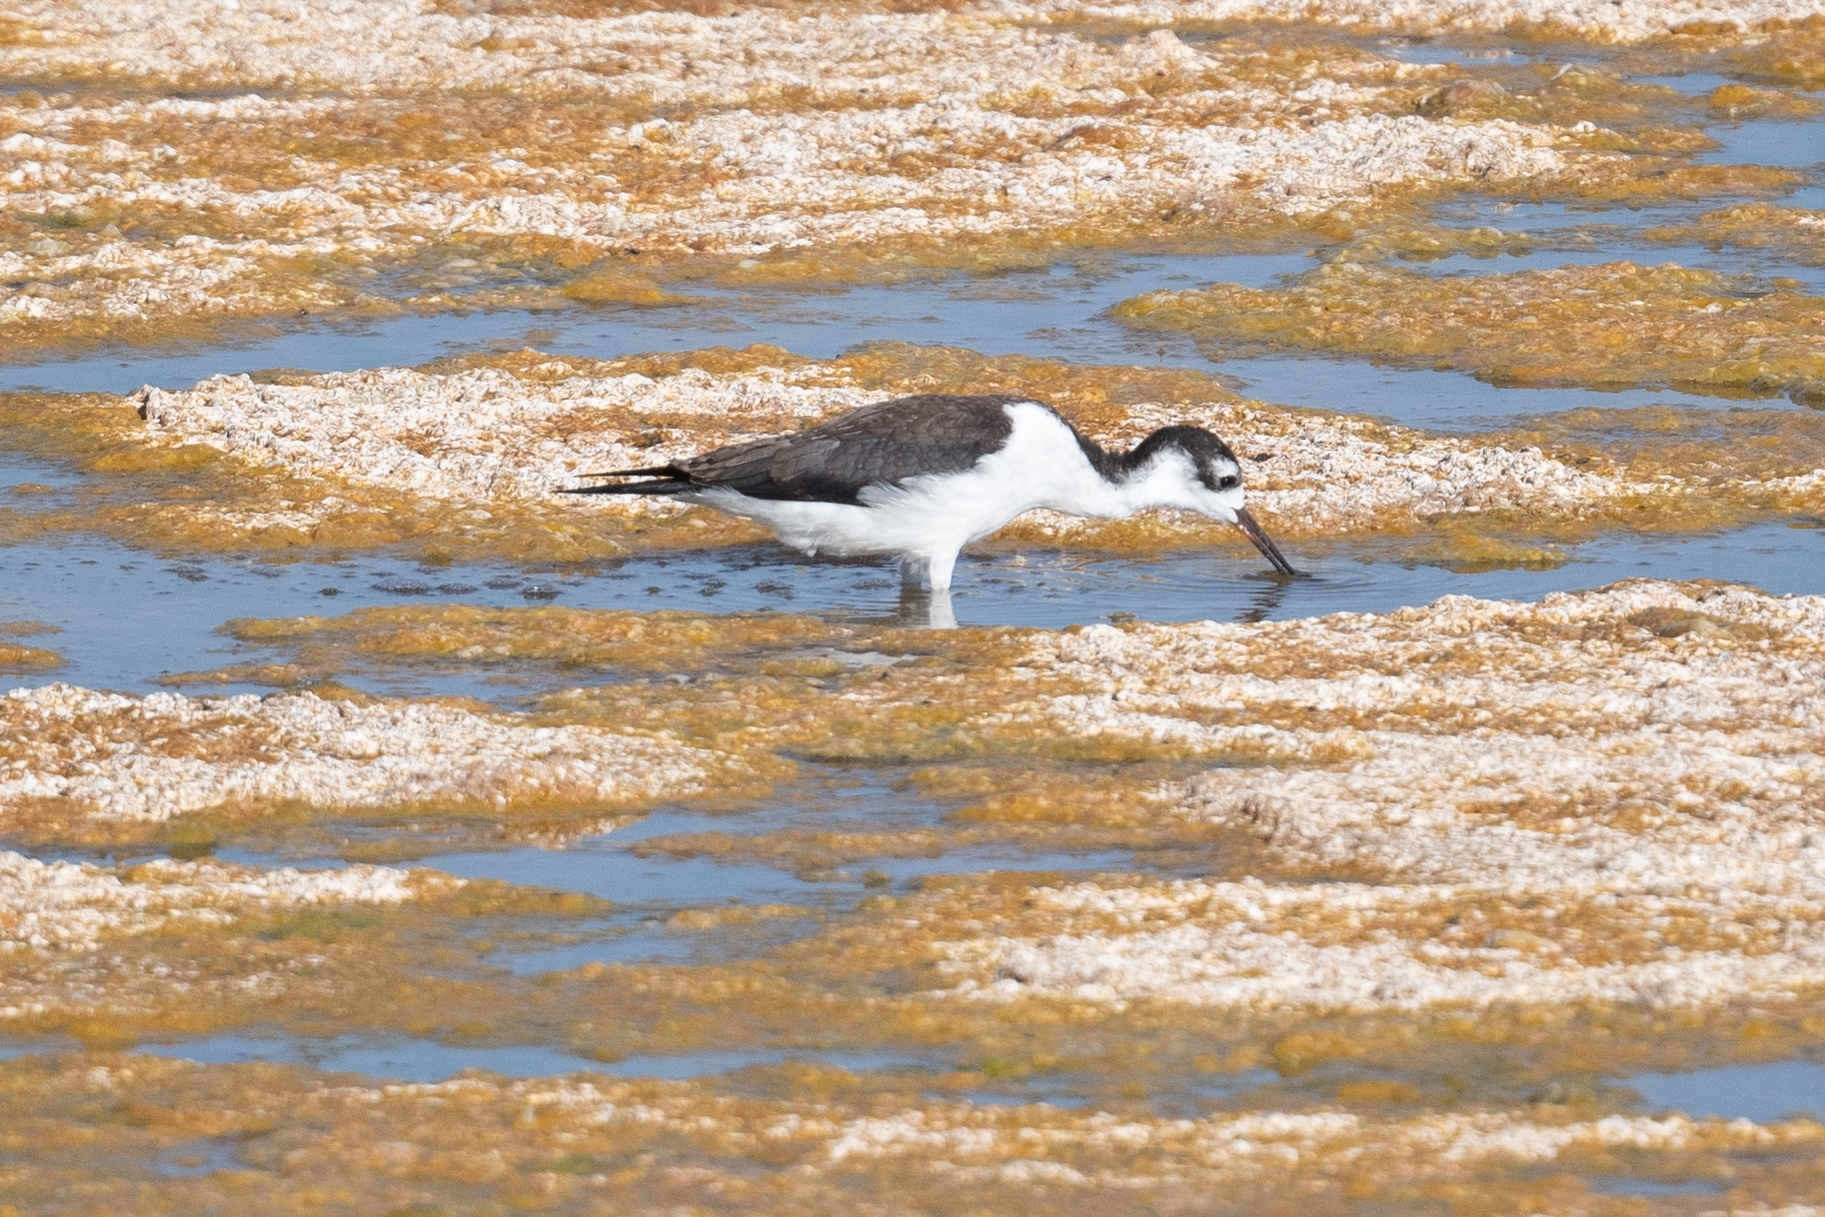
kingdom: Animalia
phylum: Chordata
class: Aves
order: Charadriiformes
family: Recurvirostridae
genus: Himantopus
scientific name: Himantopus mexicanus
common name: Black-necked stilt
